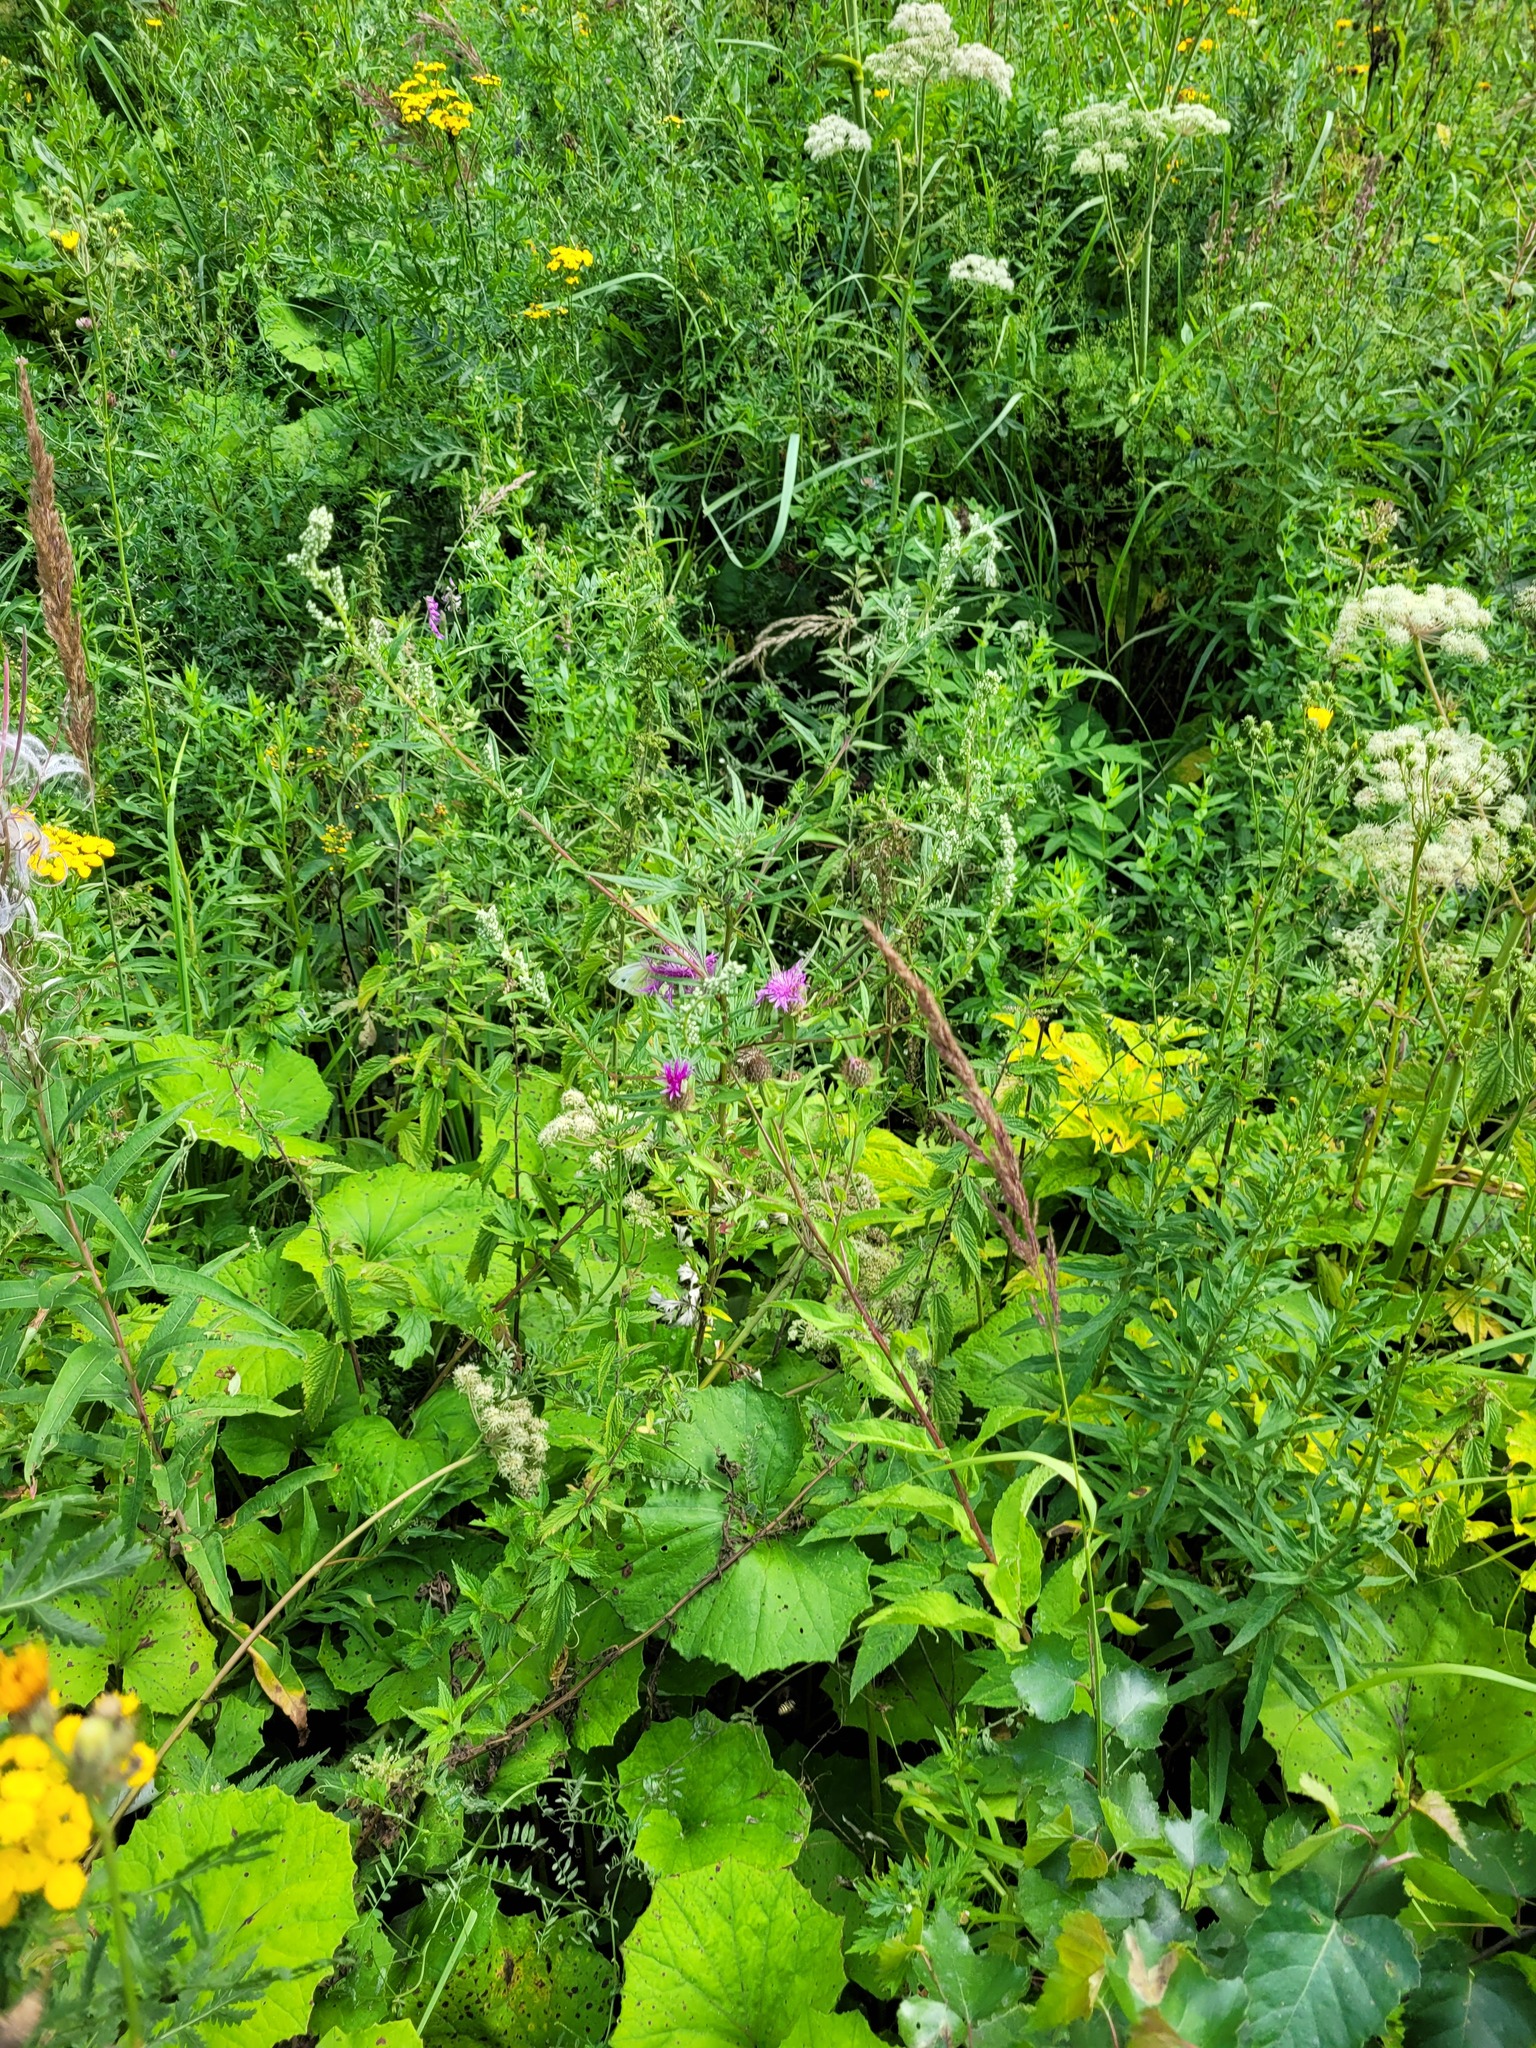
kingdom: Plantae
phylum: Tracheophyta
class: Magnoliopsida
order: Asterales
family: Asteraceae
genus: Centaurea
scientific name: Centaurea pseudophrygia
